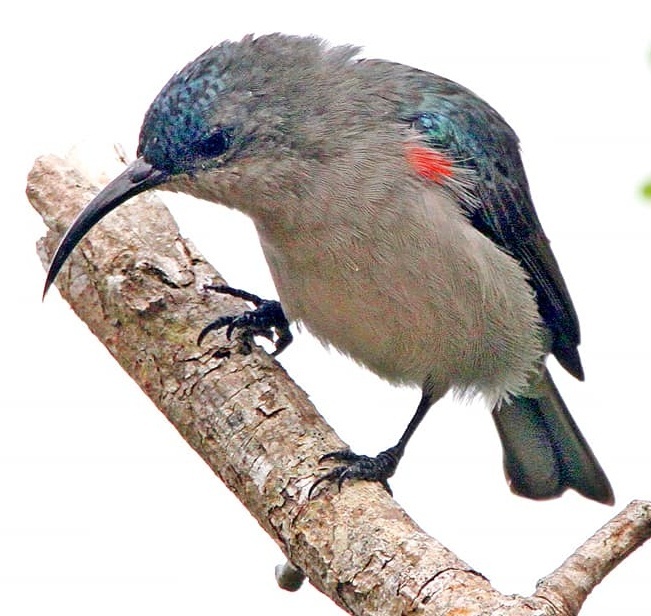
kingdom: Animalia
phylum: Chordata
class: Aves
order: Passeriformes
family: Nectariniidae
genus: Cyanomitra
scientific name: Cyanomitra veroxii
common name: Grey sunbird
